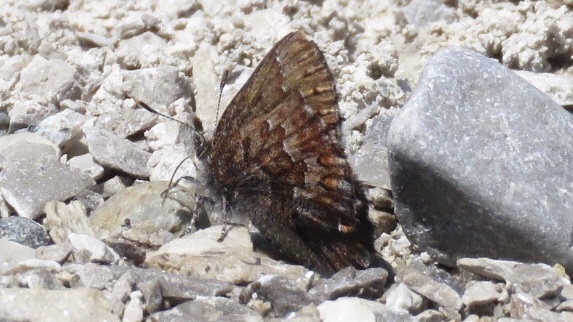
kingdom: Animalia
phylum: Arthropoda
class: Insecta
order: Lepidoptera
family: Lycaenidae
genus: Incisalia
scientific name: Incisalia niphon
